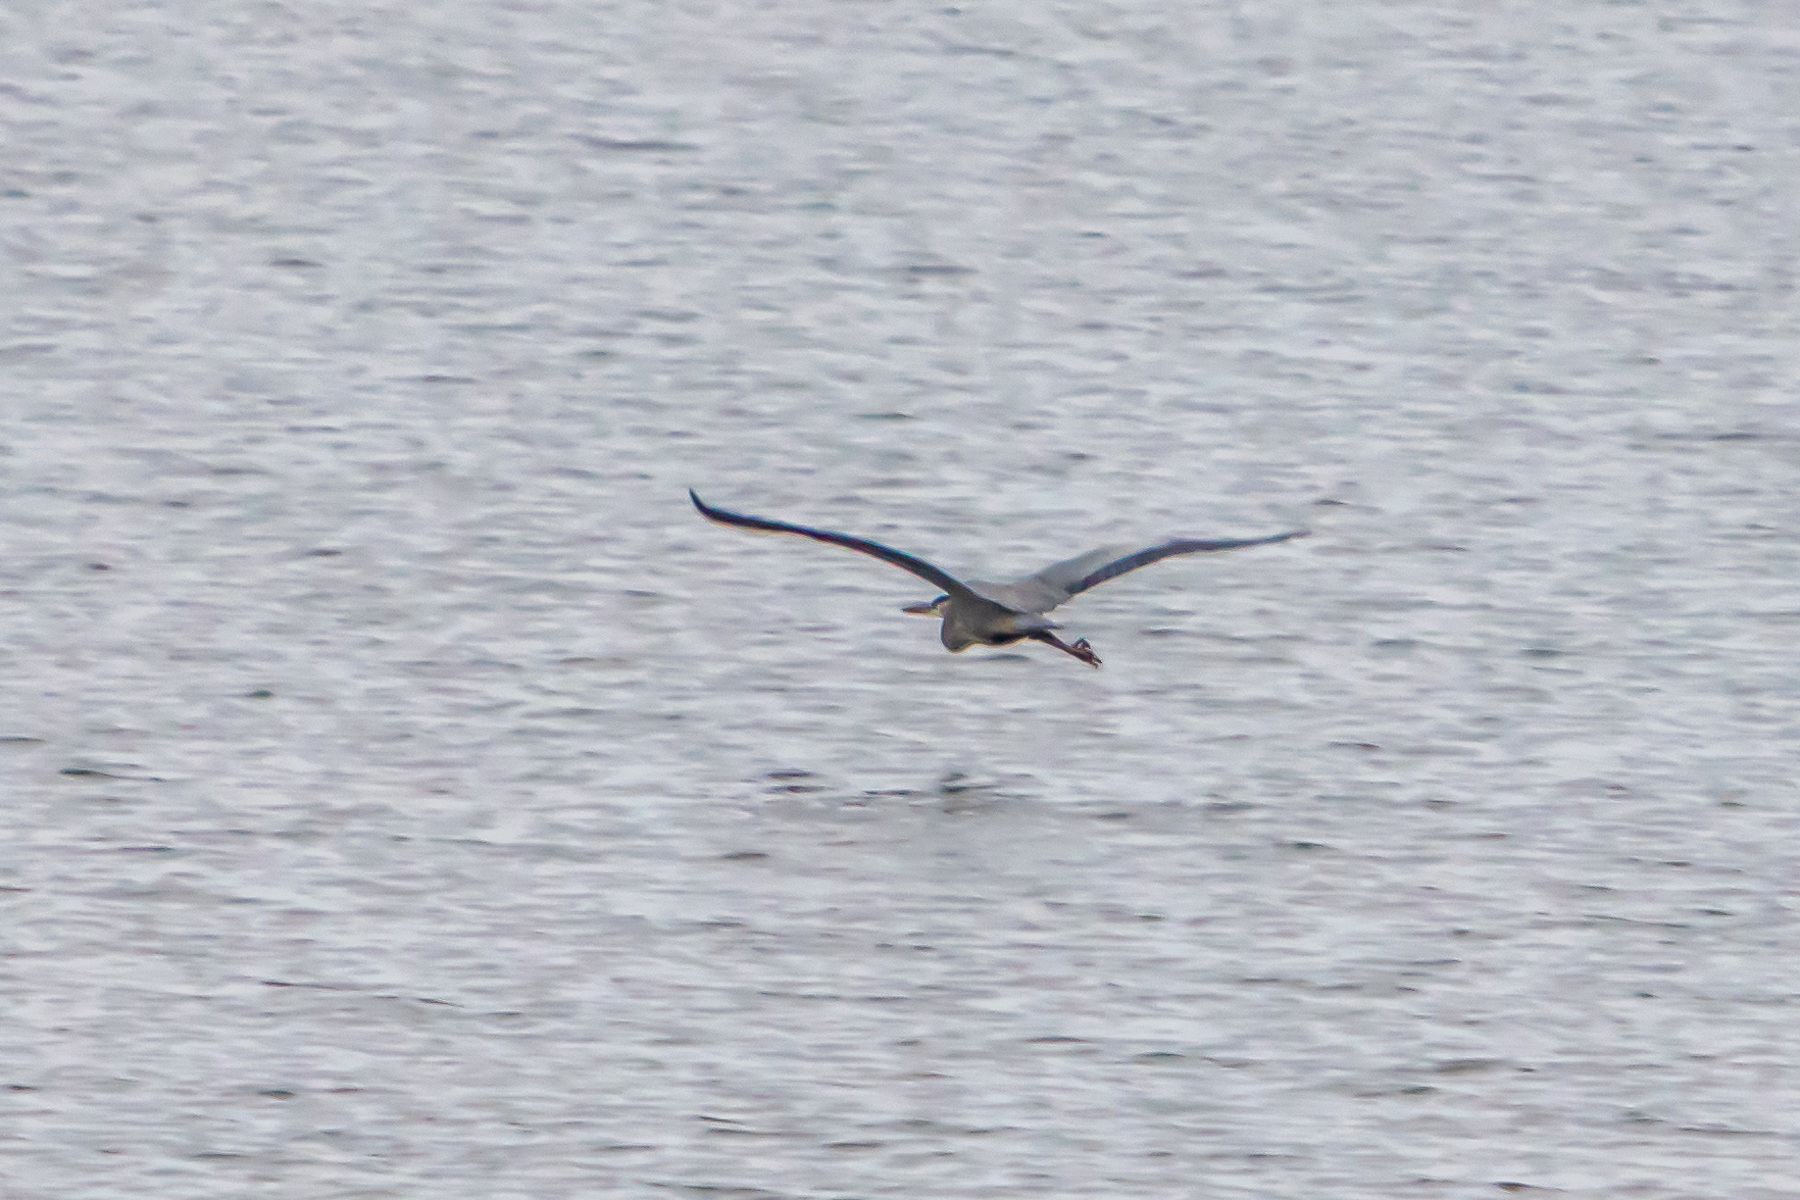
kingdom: Animalia
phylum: Chordata
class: Aves
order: Pelecaniformes
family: Ardeidae
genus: Ardea
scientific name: Ardea herodias
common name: Great blue heron
